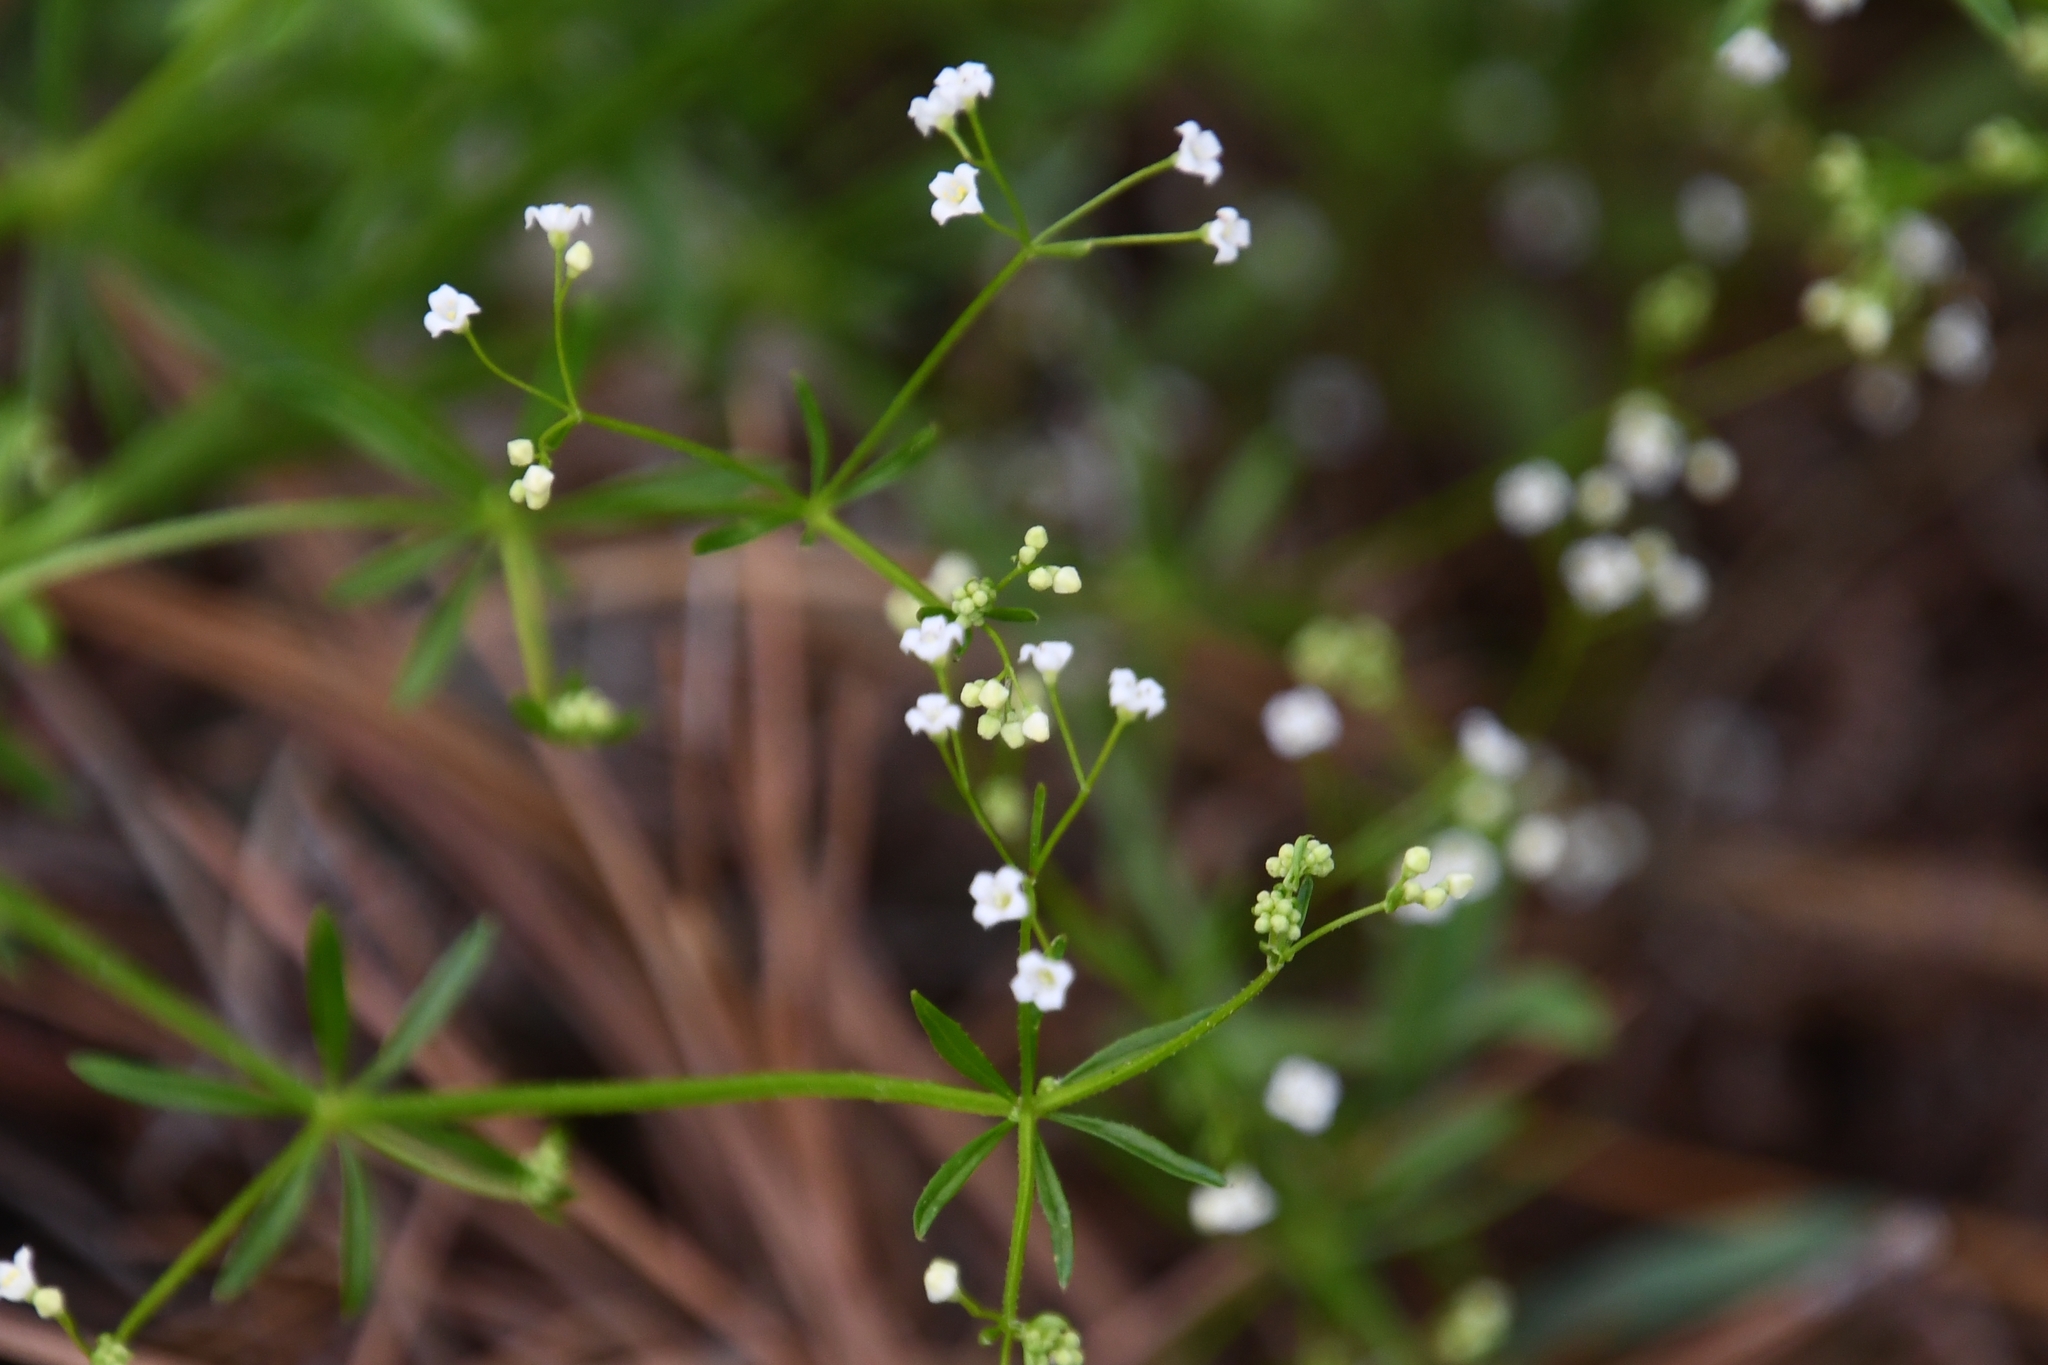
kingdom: Plantae
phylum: Tracheophyta
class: Magnoliopsida
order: Gentianales
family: Rubiaceae
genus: Galium
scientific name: Galium mexicanum
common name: Mexican bedstraw
